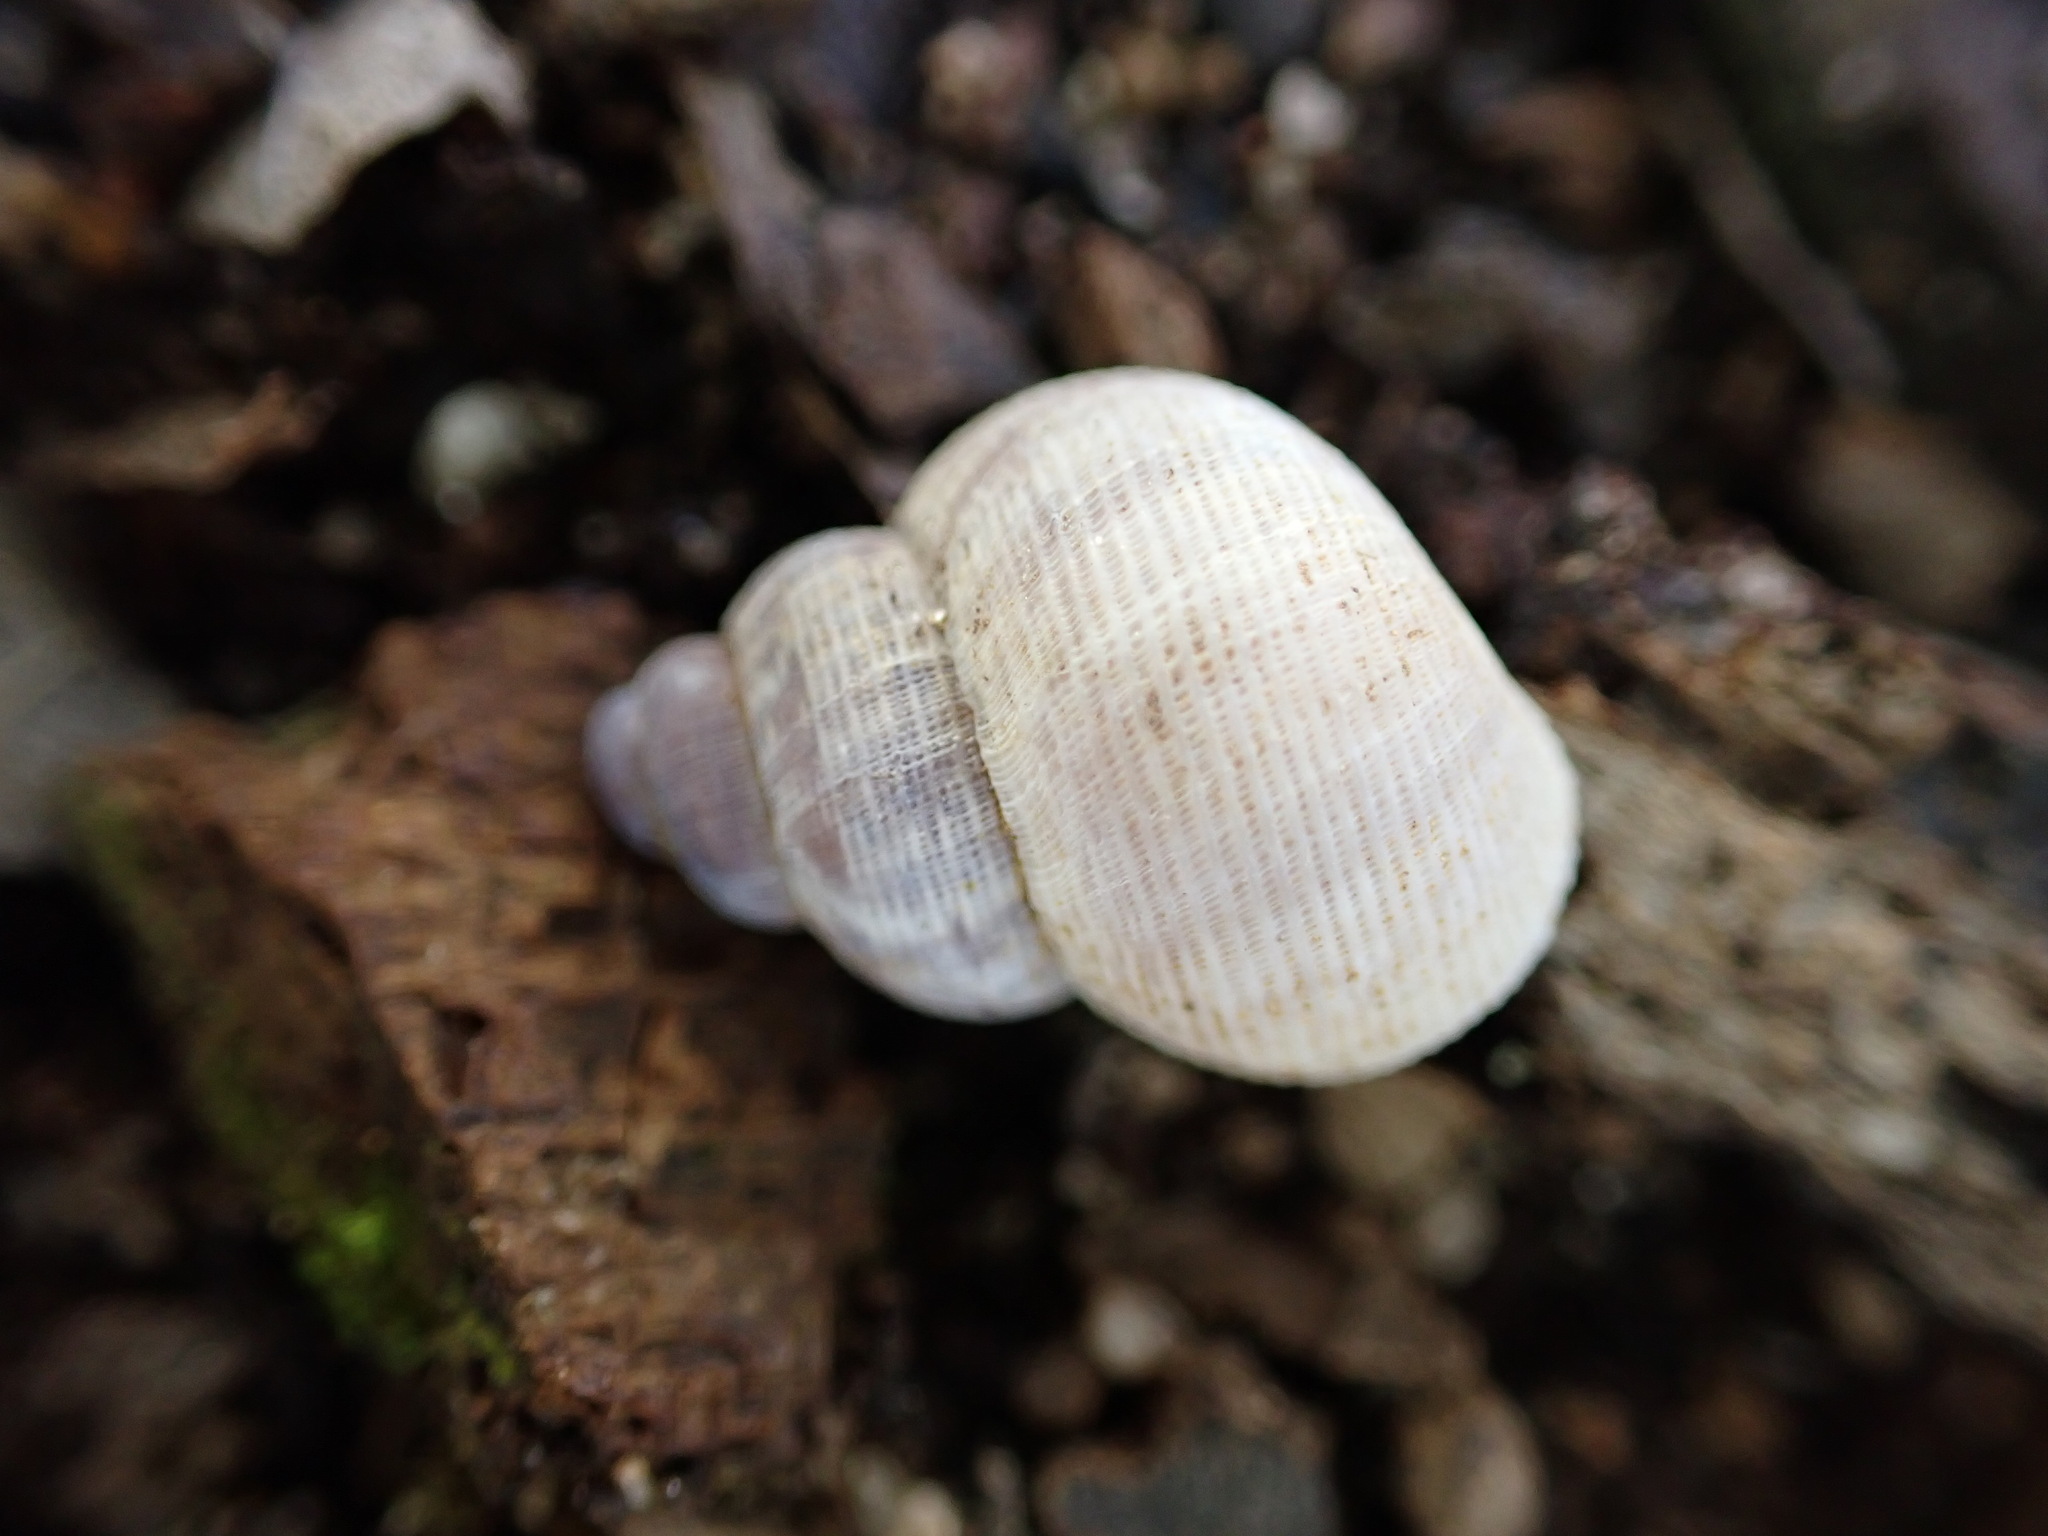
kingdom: Animalia
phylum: Mollusca
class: Gastropoda
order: Littorinimorpha
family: Pomatiidae
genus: Pomatias
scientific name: Pomatias elegans
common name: Red-mouthed snail
